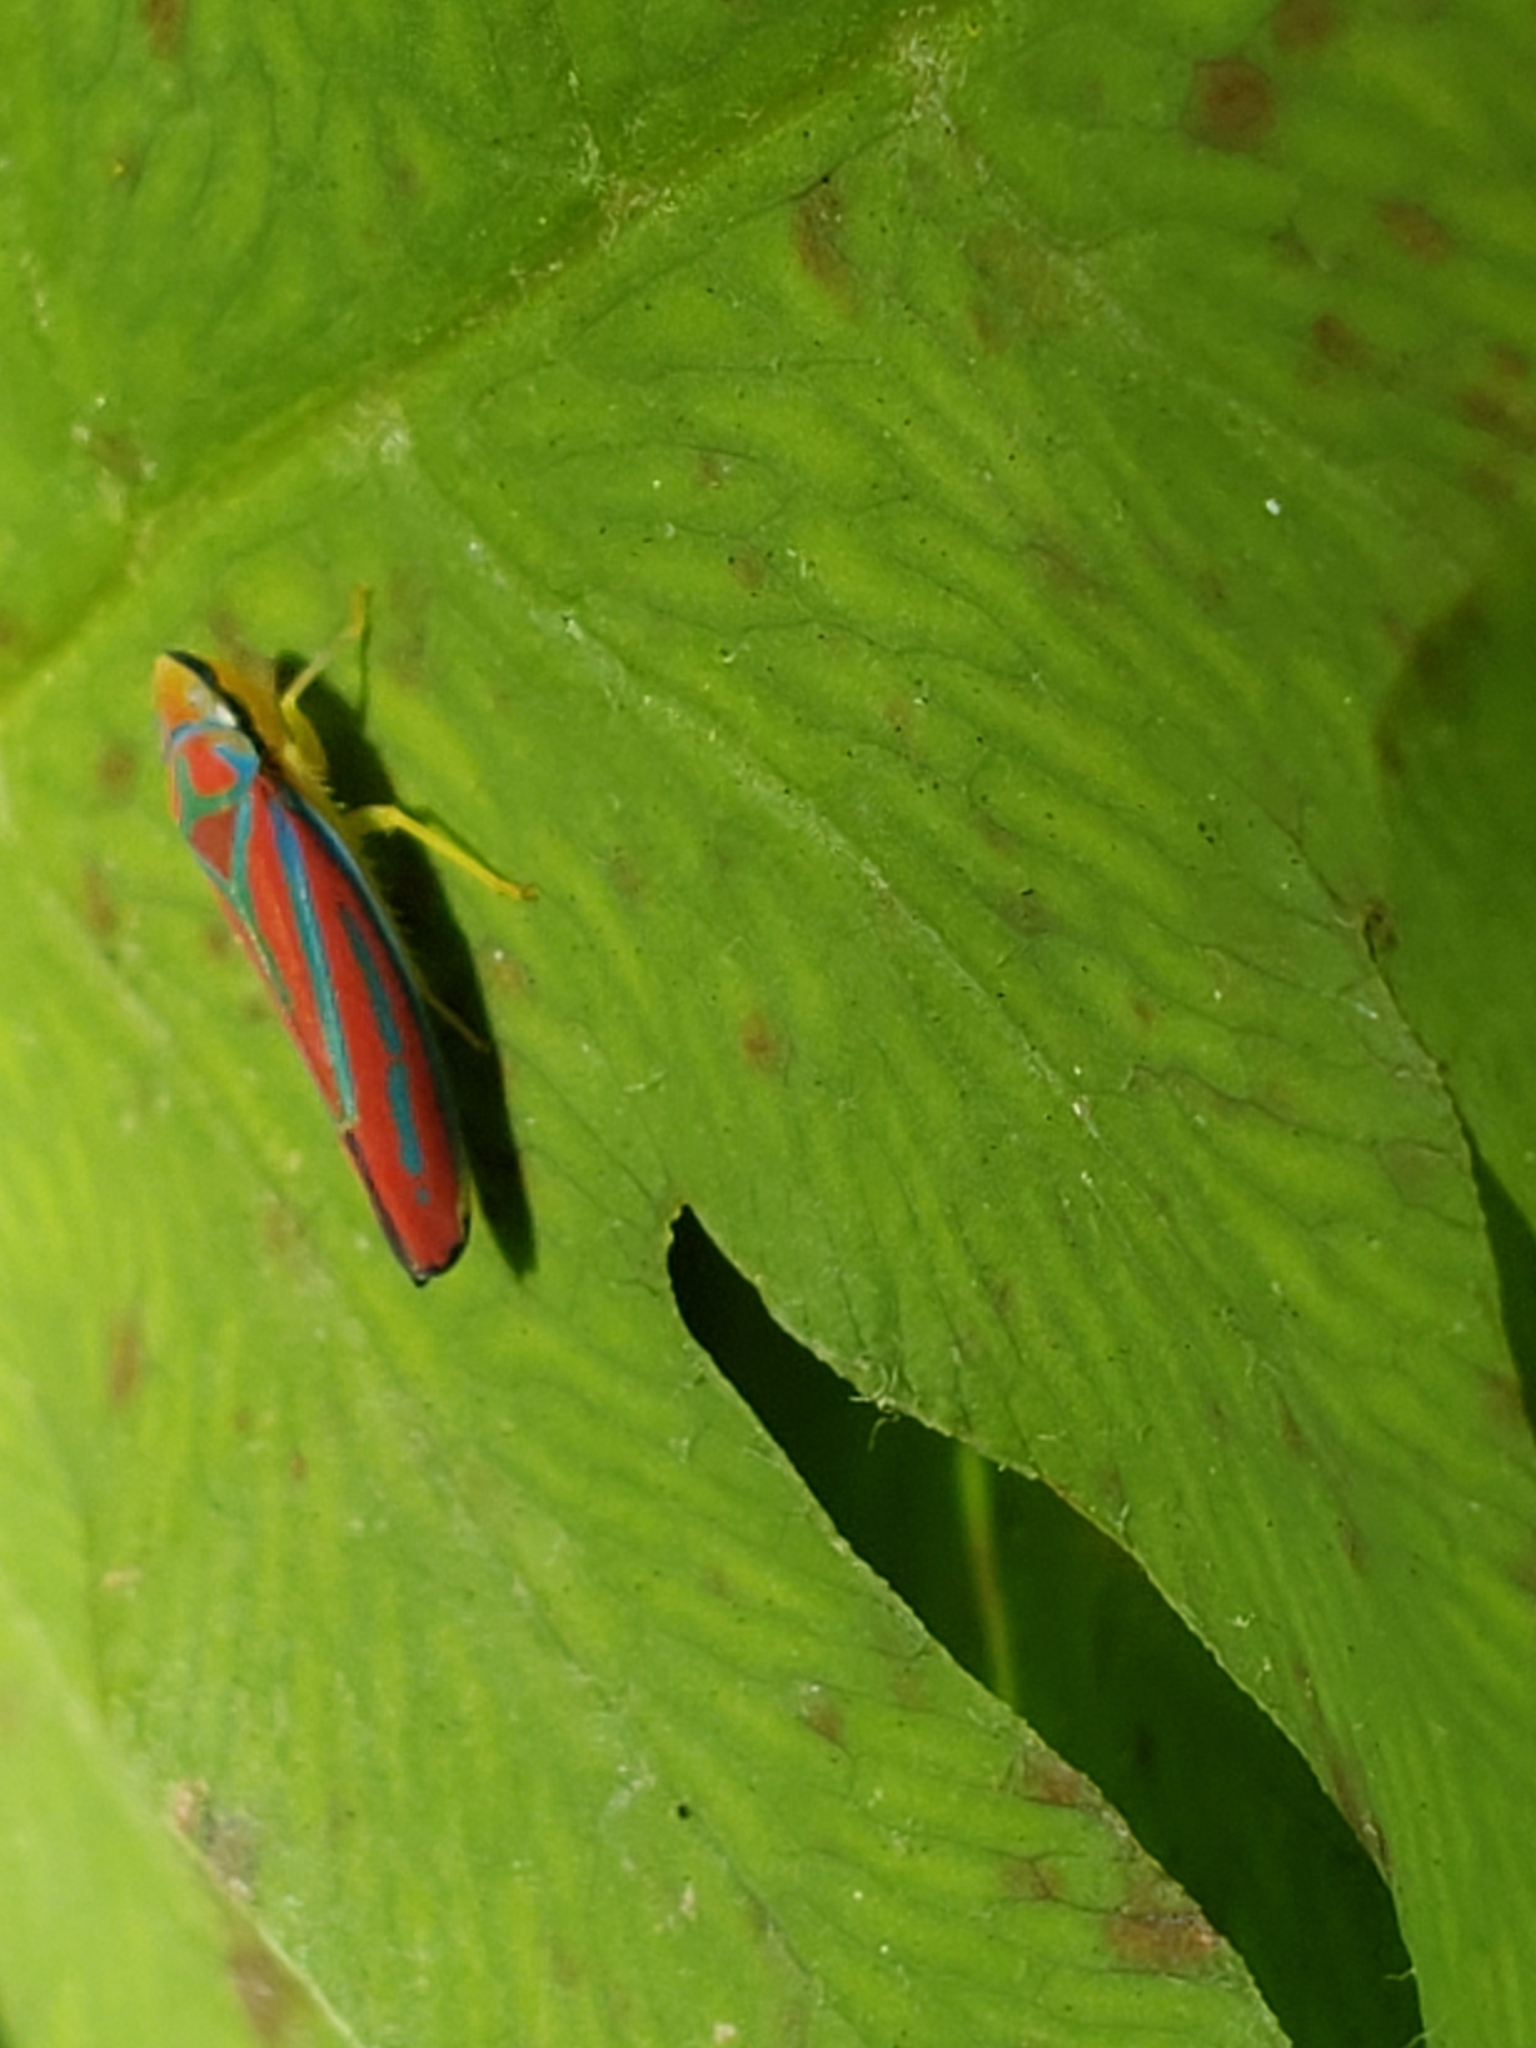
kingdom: Animalia
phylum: Arthropoda
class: Insecta
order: Hemiptera
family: Cicadellidae
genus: Graphocephala
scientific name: Graphocephala coccinea
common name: Candy-striped leafhopper
